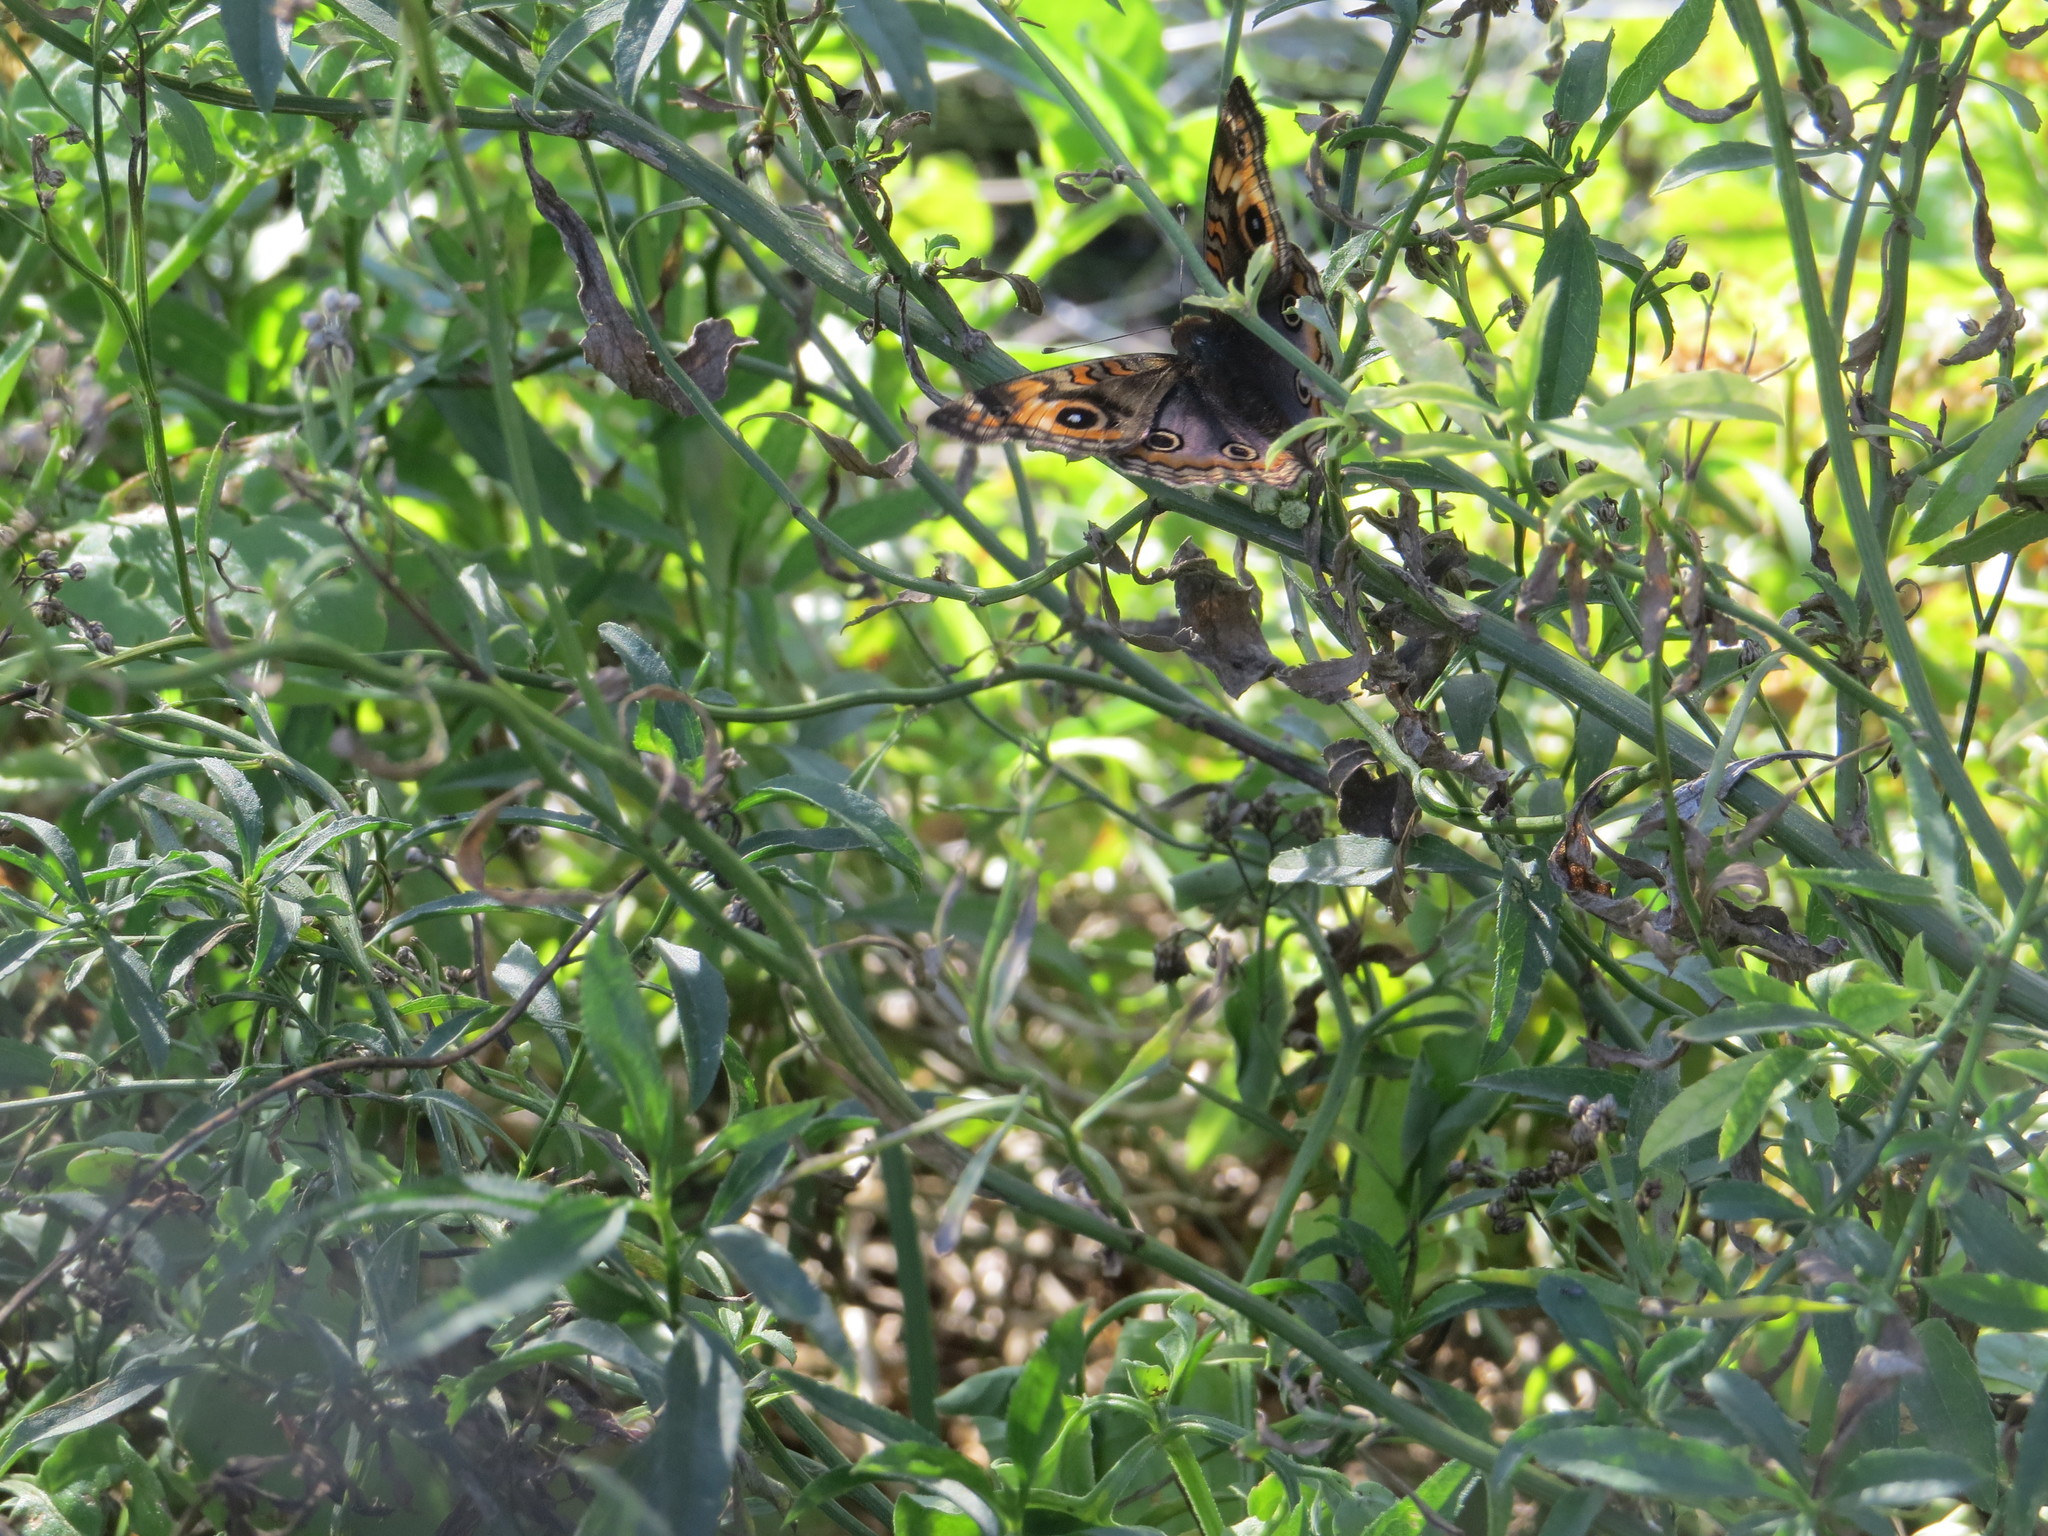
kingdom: Animalia
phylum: Arthropoda
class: Insecta
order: Lepidoptera
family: Nymphalidae
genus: Junonia
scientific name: Junonia lavinia
